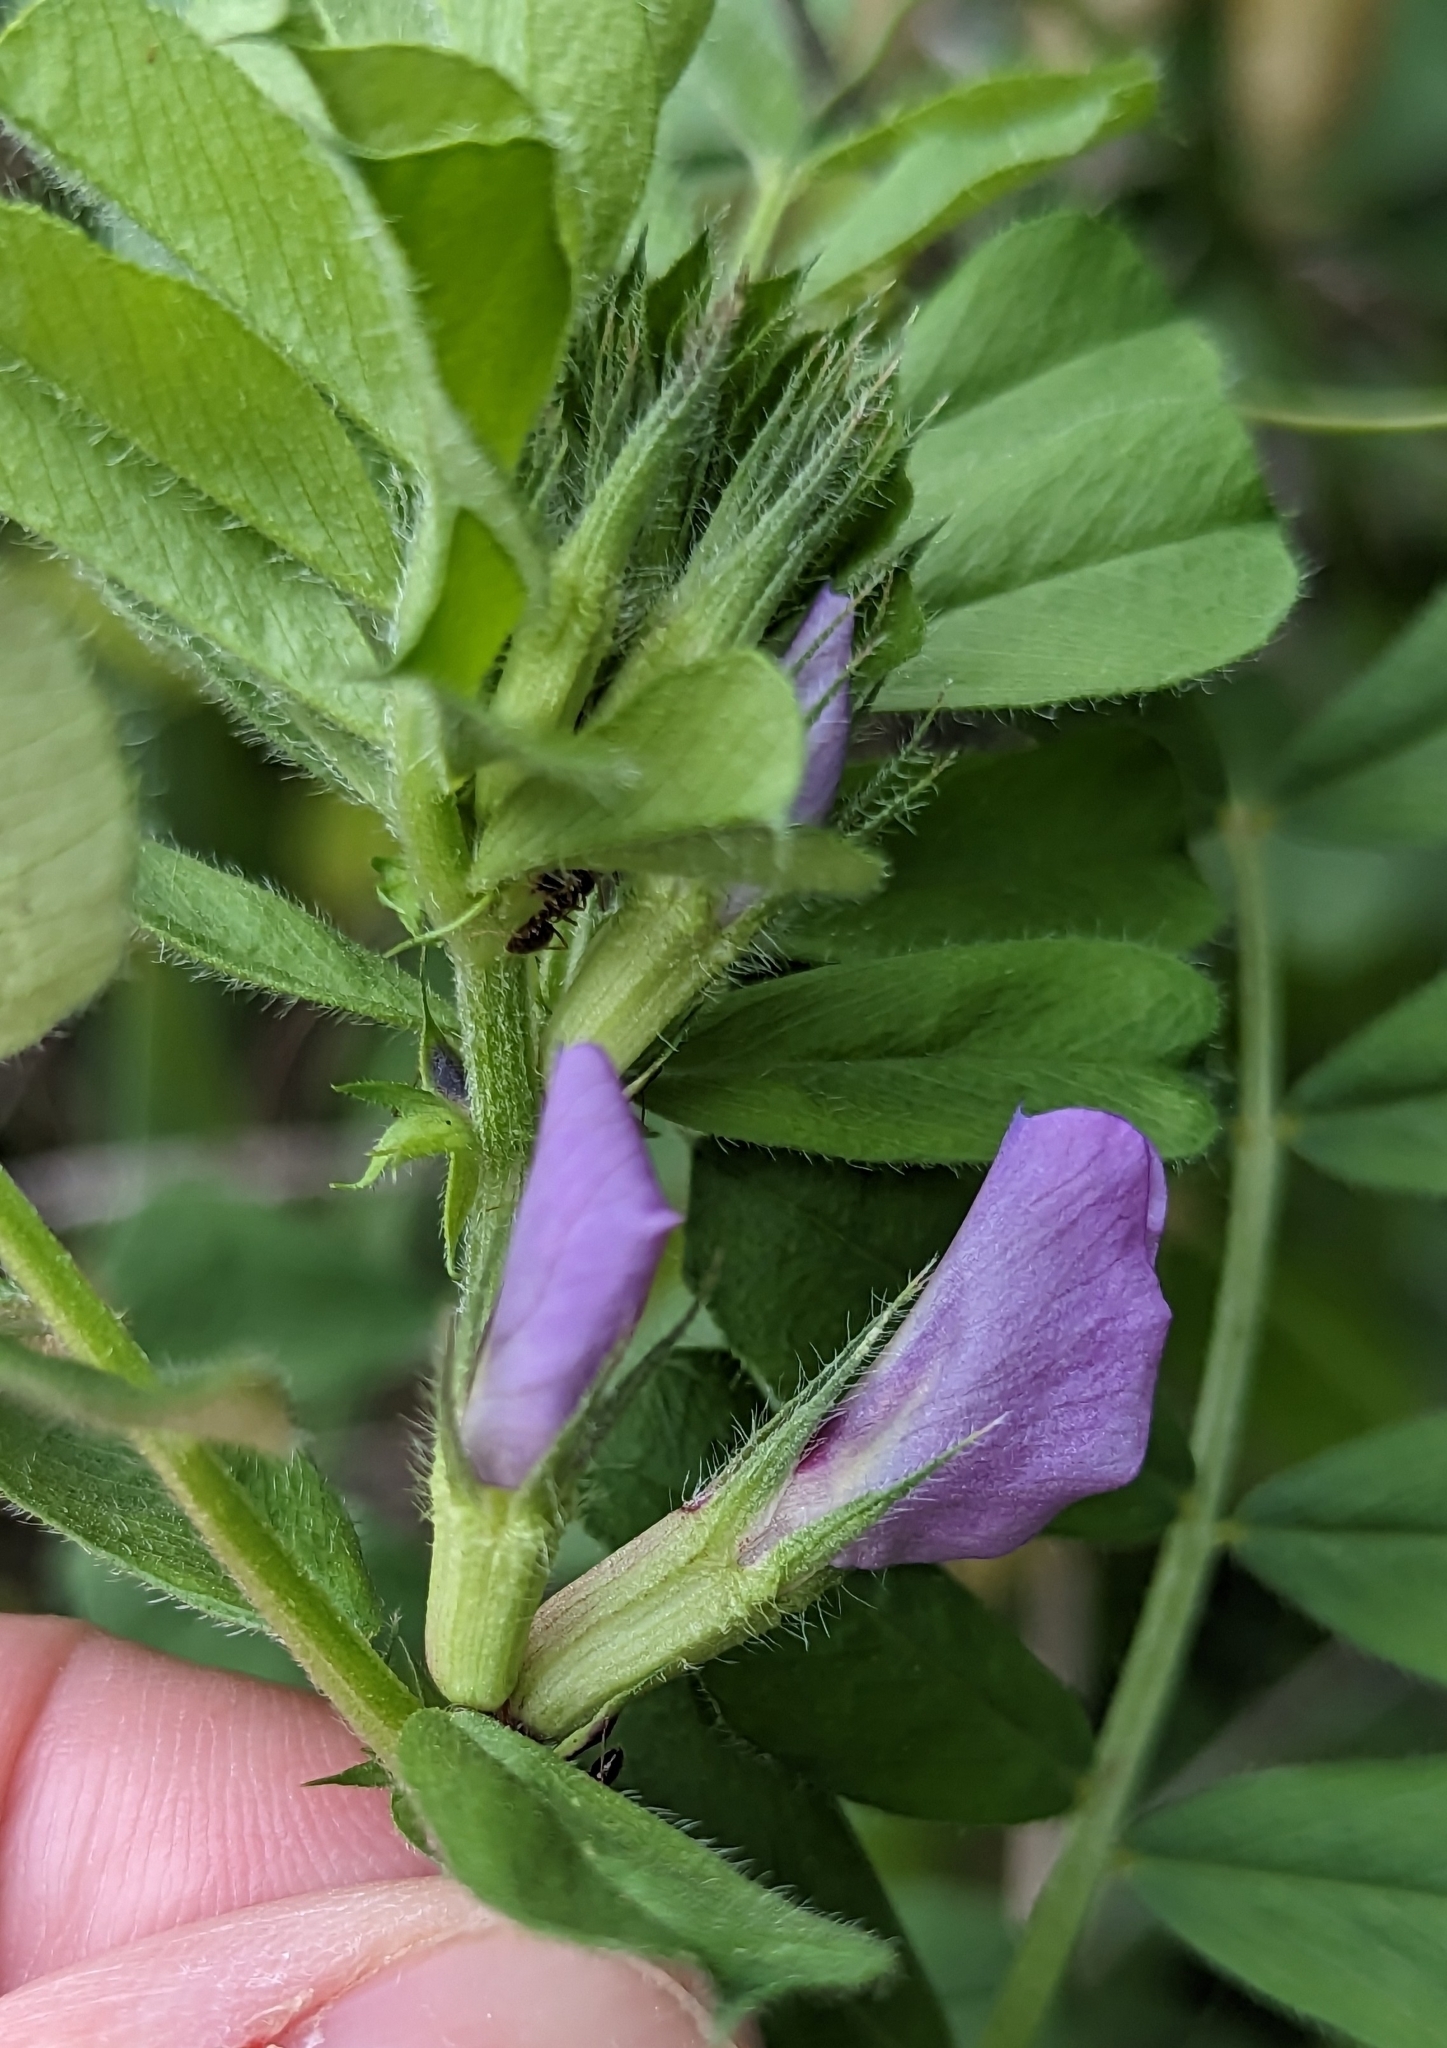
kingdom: Plantae
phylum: Tracheophyta
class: Magnoliopsida
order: Fabales
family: Fabaceae
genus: Vicia
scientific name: Vicia sativa
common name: Garden vetch
